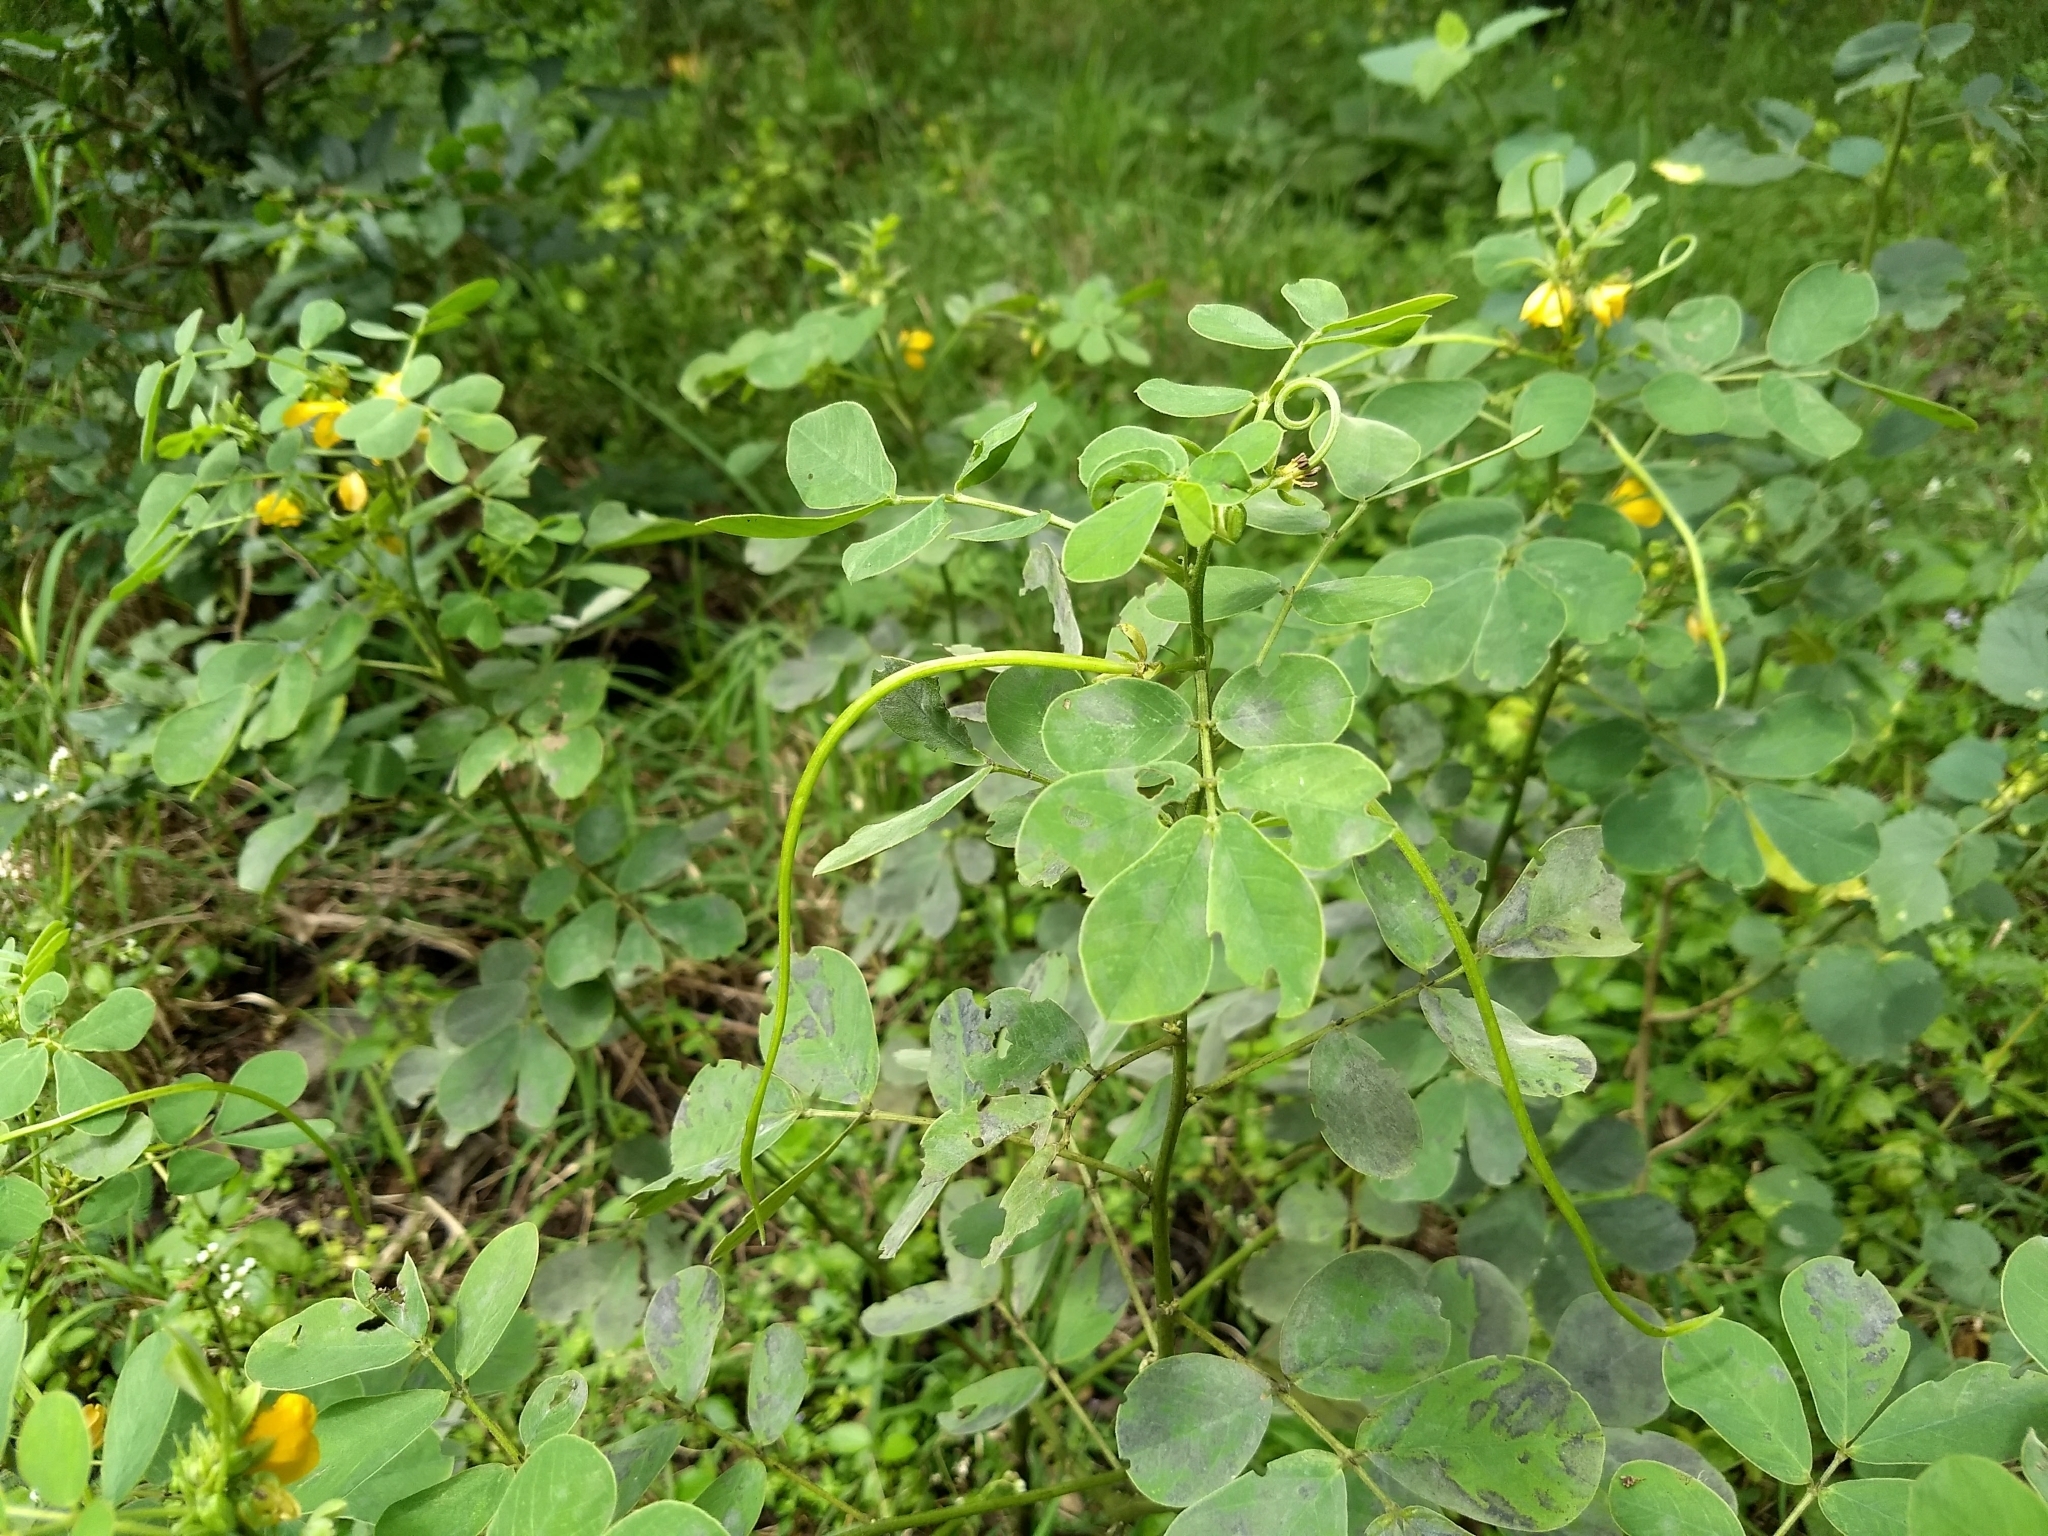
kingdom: Plantae
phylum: Tracheophyta
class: Magnoliopsida
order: Fabales
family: Fabaceae
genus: Senna
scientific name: Senna tora
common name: Sickle senna
